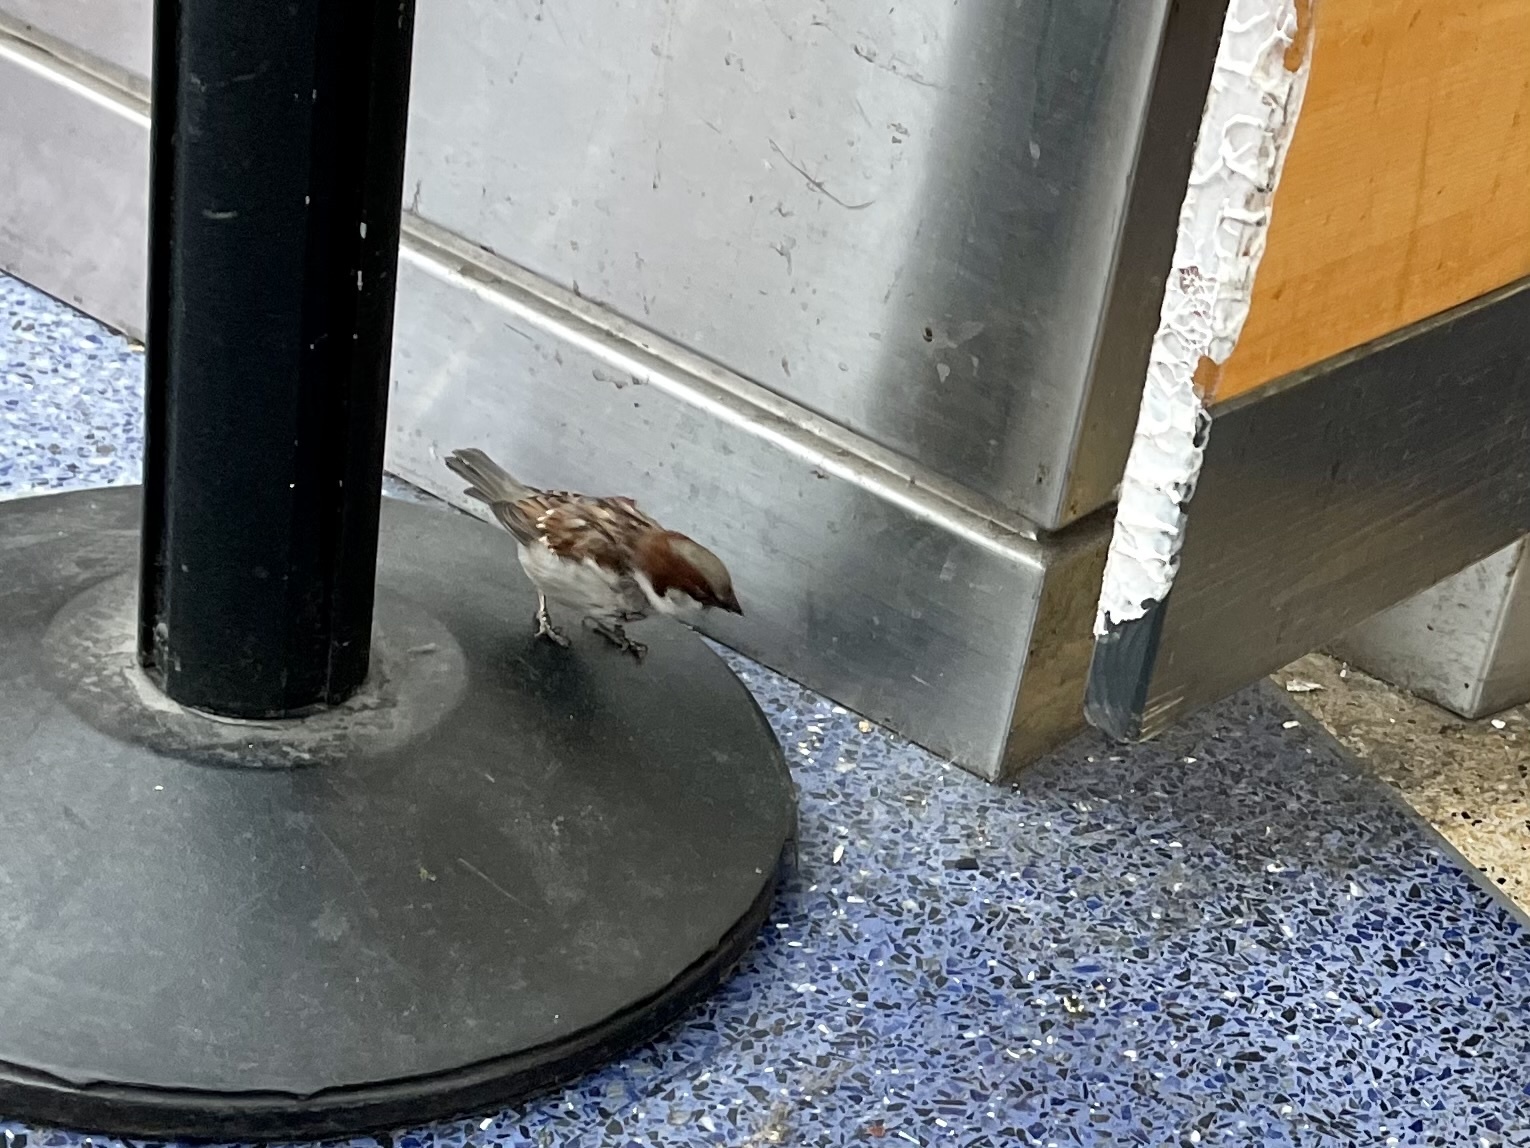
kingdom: Animalia
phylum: Chordata
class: Aves
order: Passeriformes
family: Passeridae
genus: Passer
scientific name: Passer domesticus
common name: House sparrow
